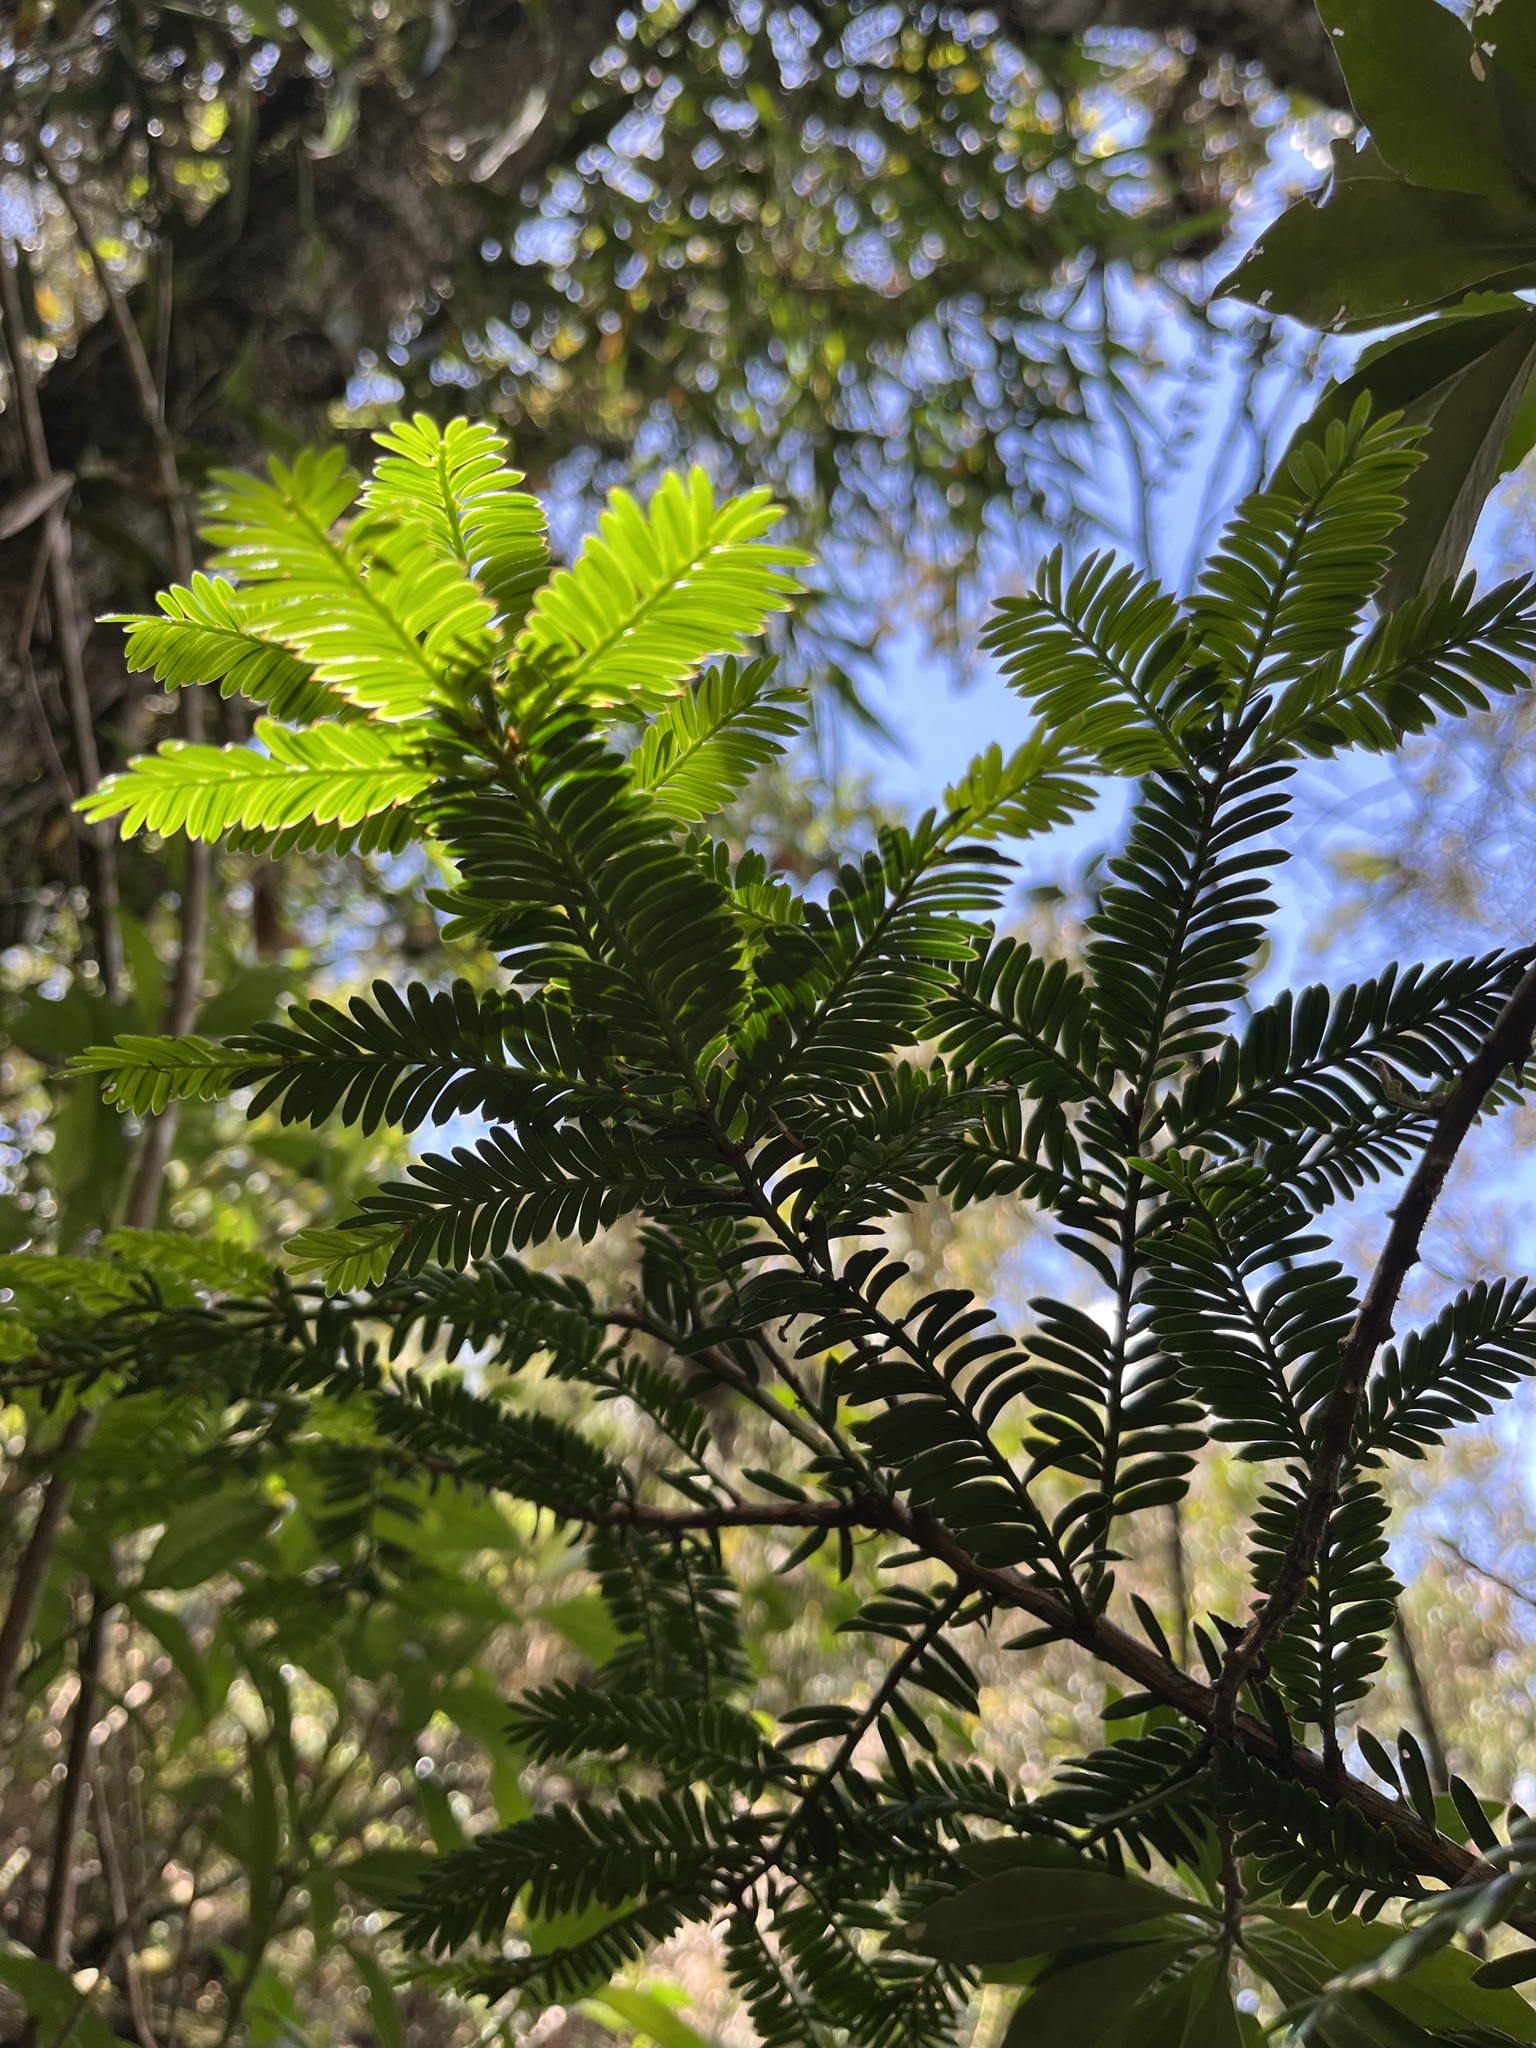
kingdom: Plantae
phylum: Tracheophyta
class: Pinopsida
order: Pinales
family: Podocarpaceae
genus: Prumnopitys
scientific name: Prumnopitys montana
